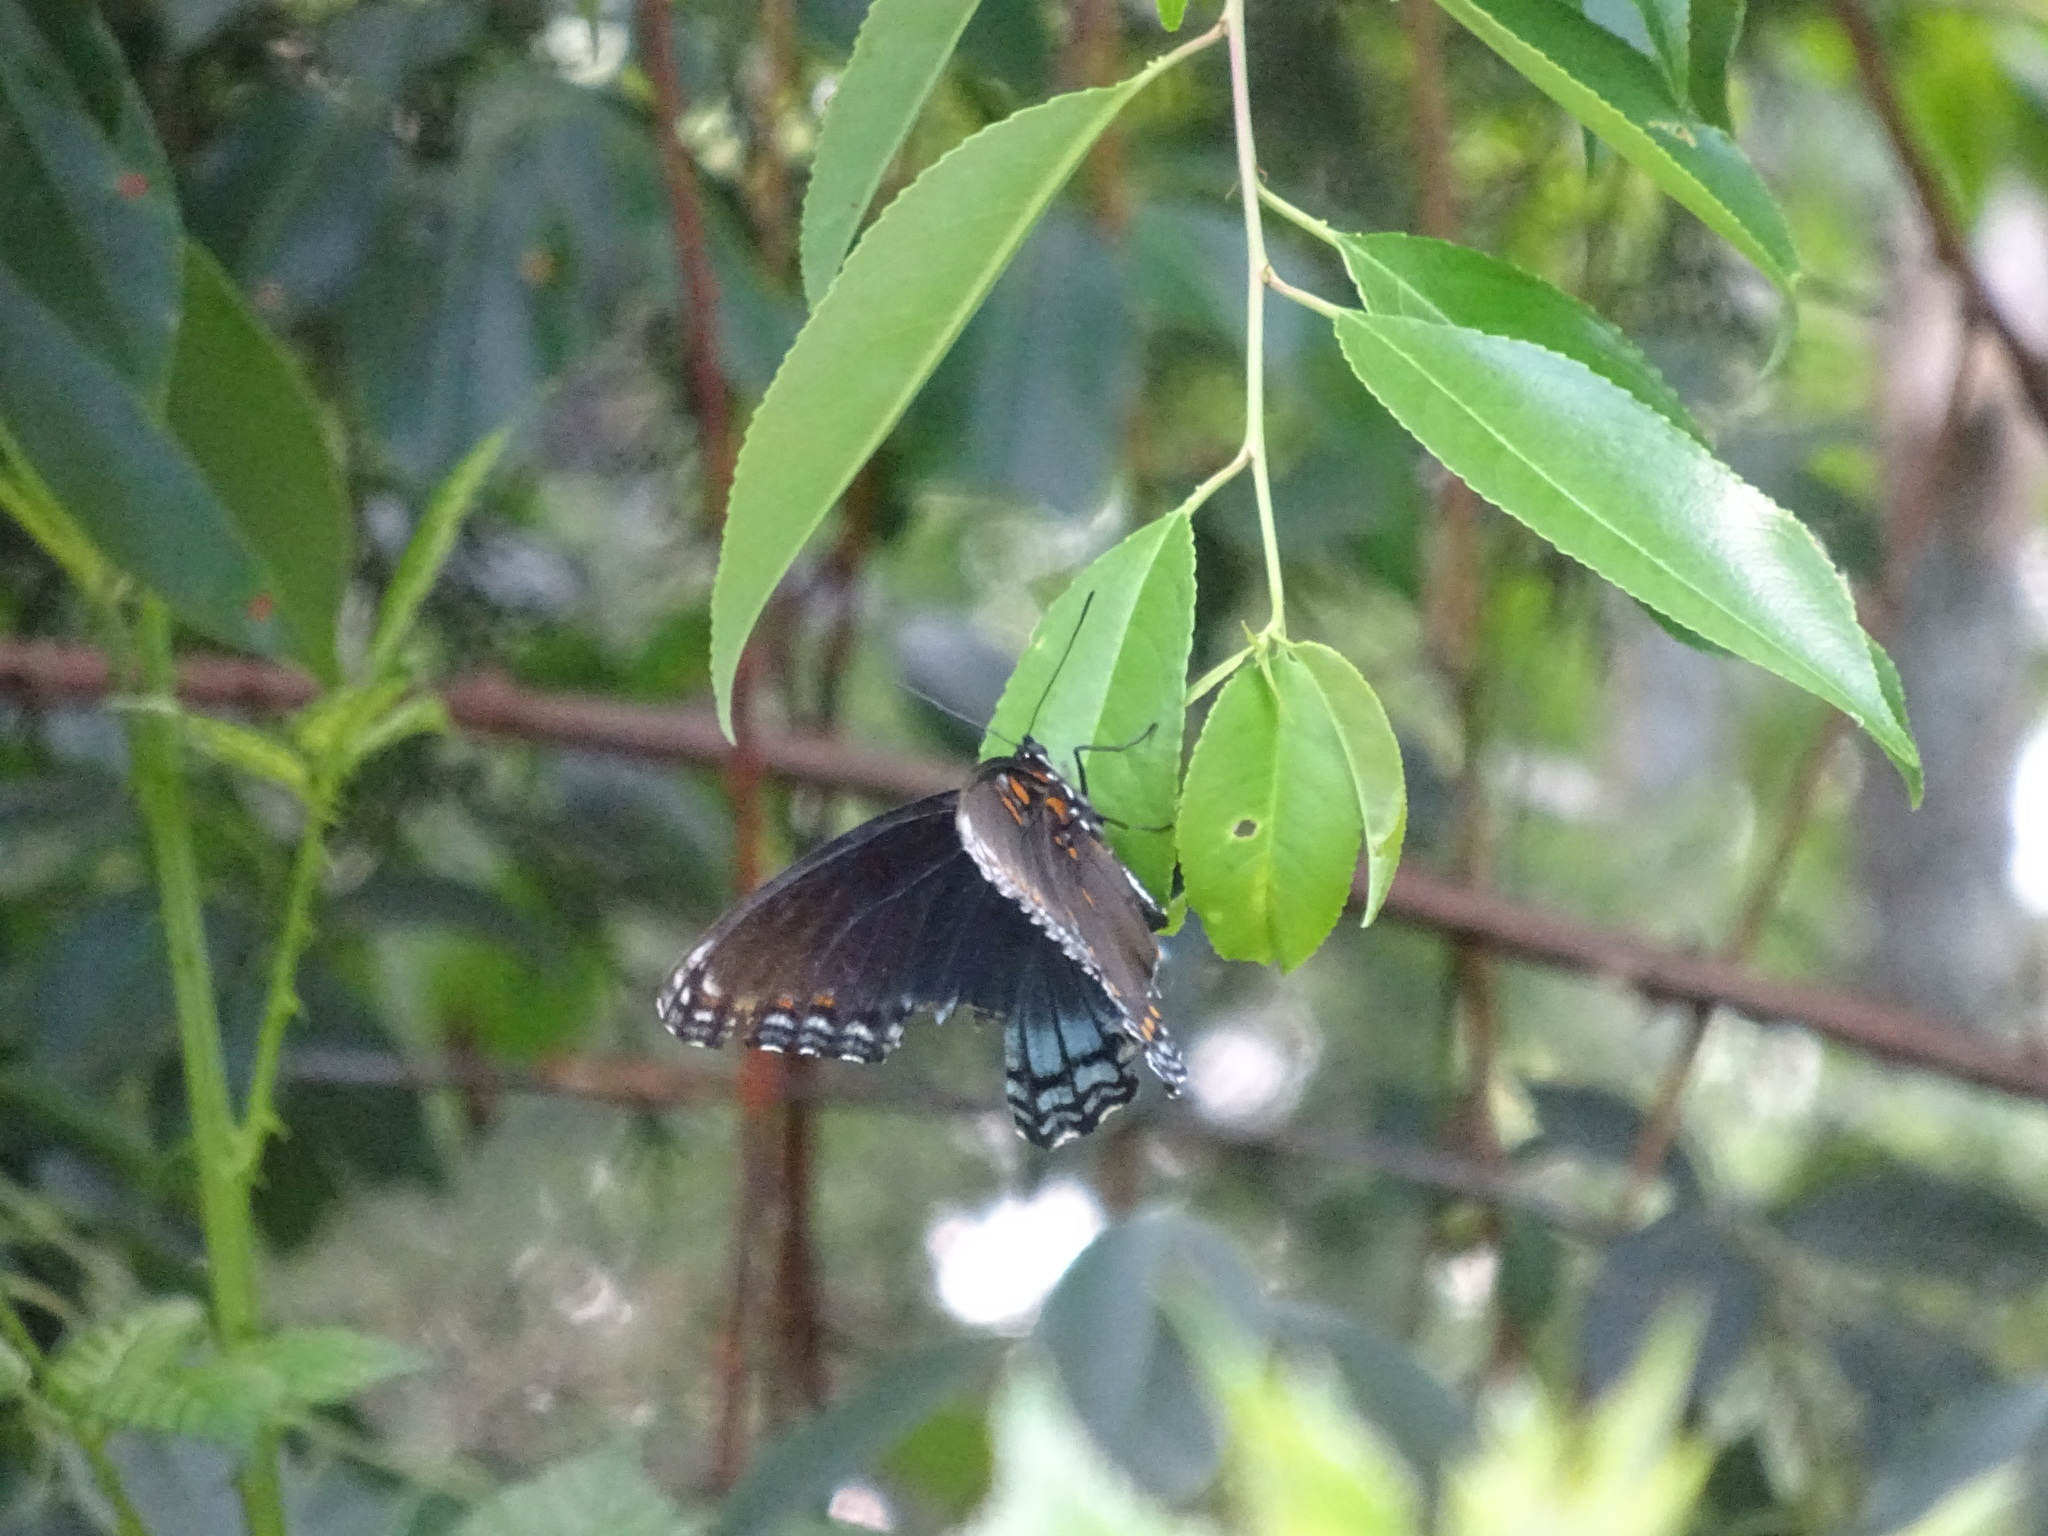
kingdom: Animalia
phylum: Arthropoda
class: Insecta
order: Lepidoptera
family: Nymphalidae
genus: Limenitis
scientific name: Limenitis astyanax
